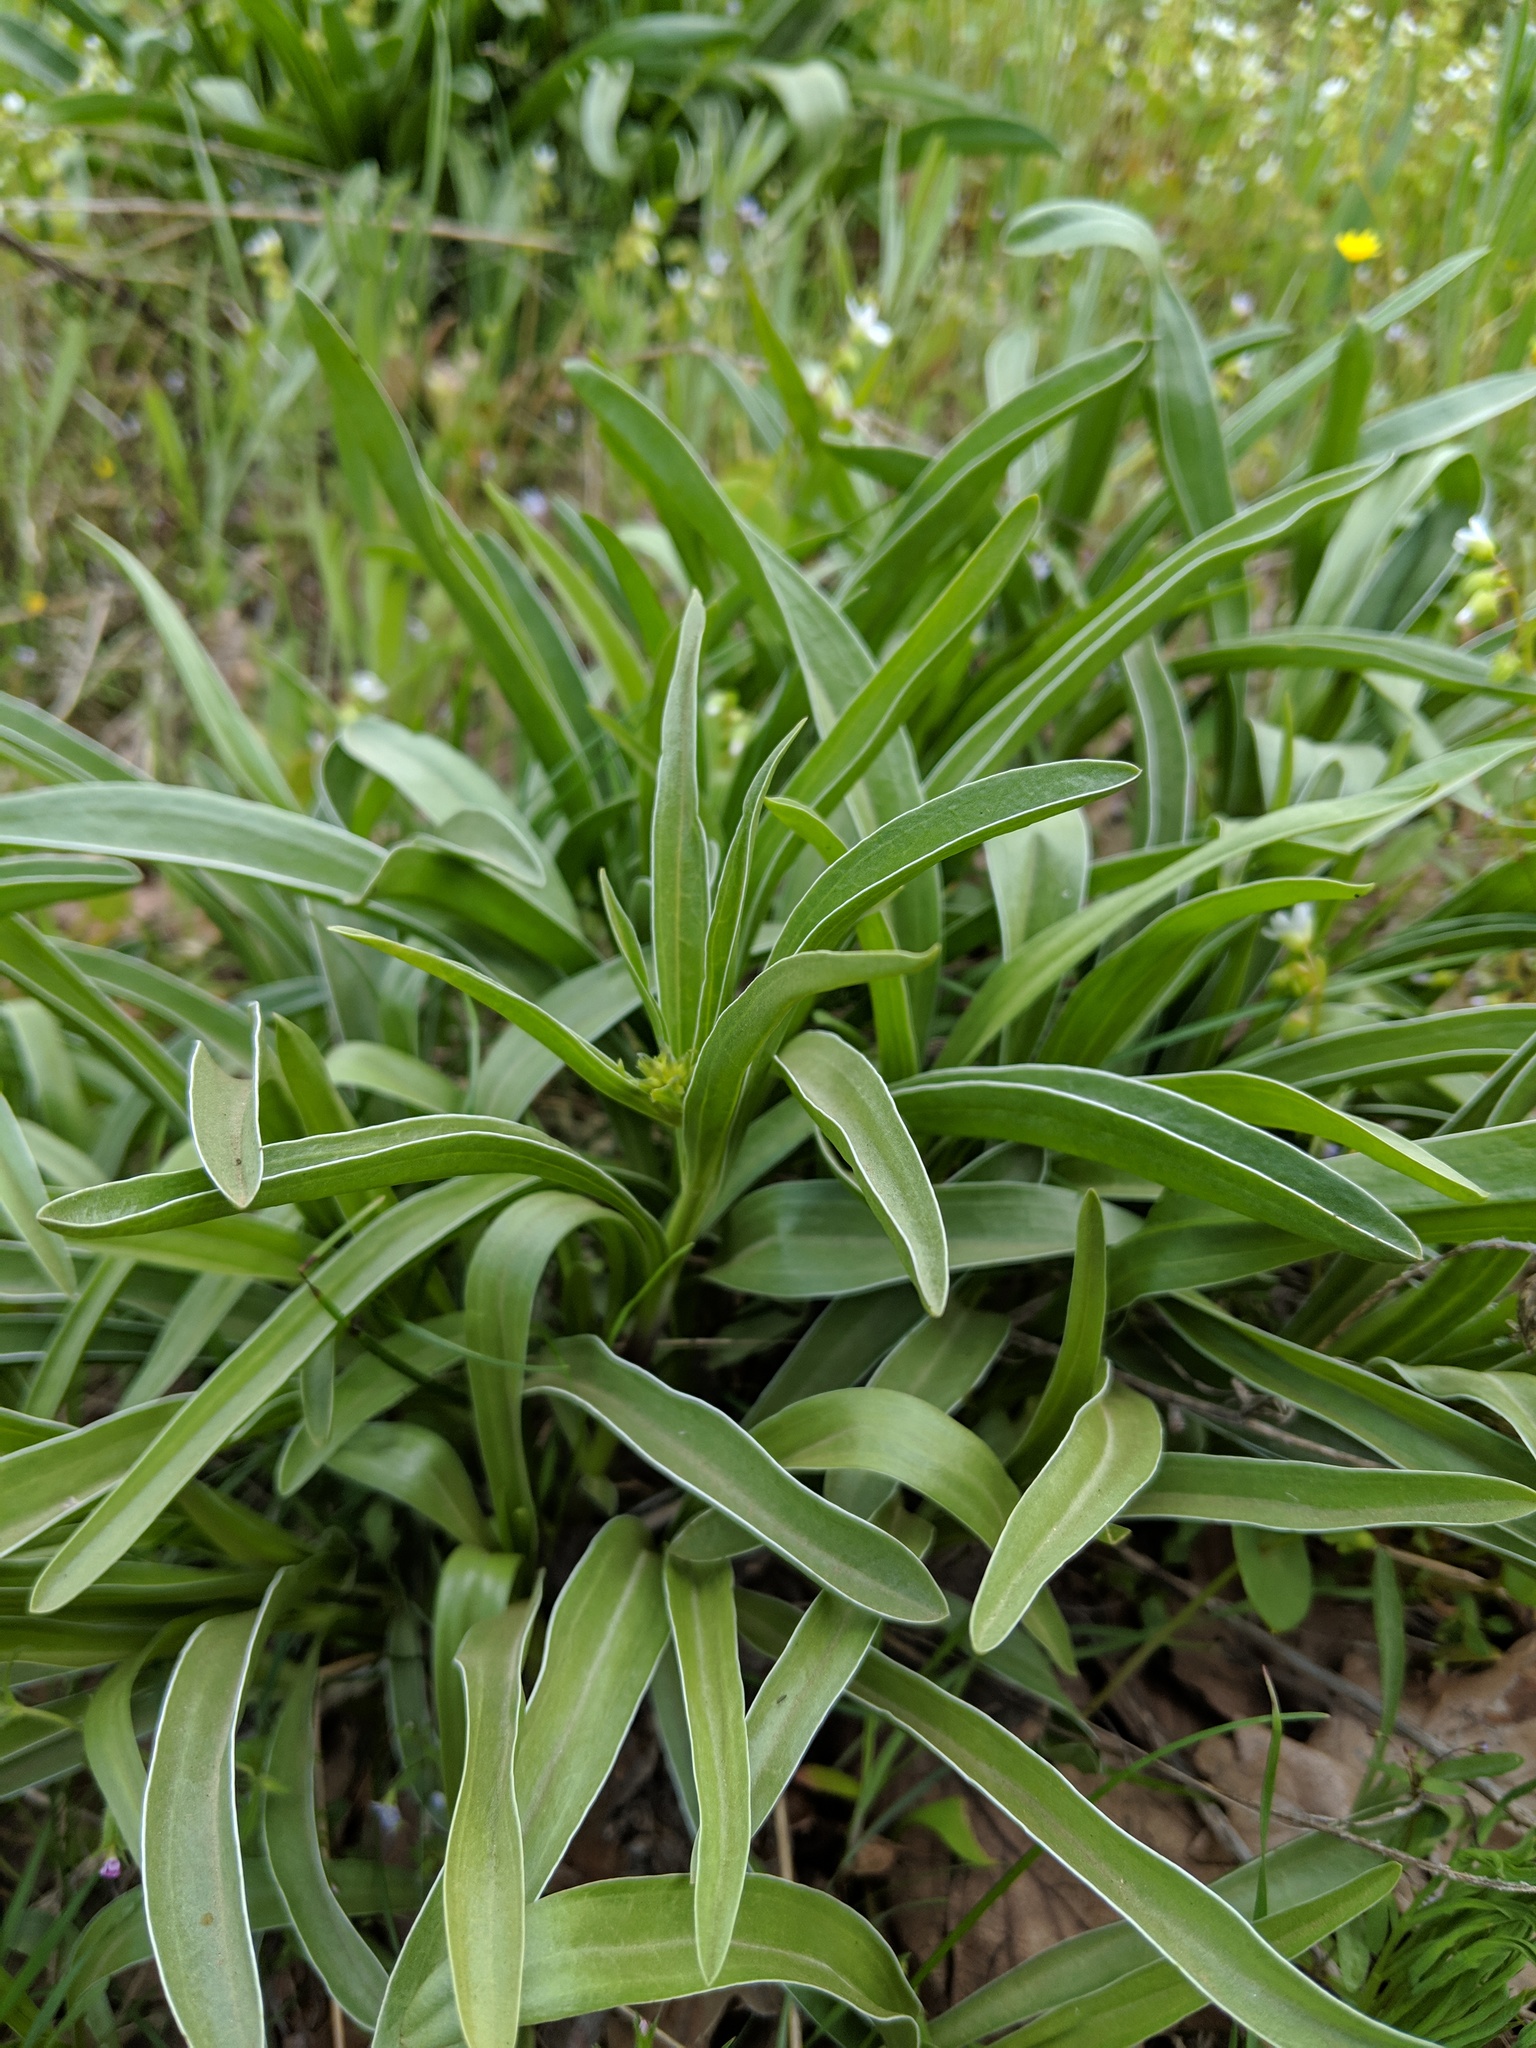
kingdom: Plantae
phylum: Tracheophyta
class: Magnoliopsida
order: Gentianales
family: Gentianaceae
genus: Frasera
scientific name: Frasera albicaulis
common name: Cusick's frasera
